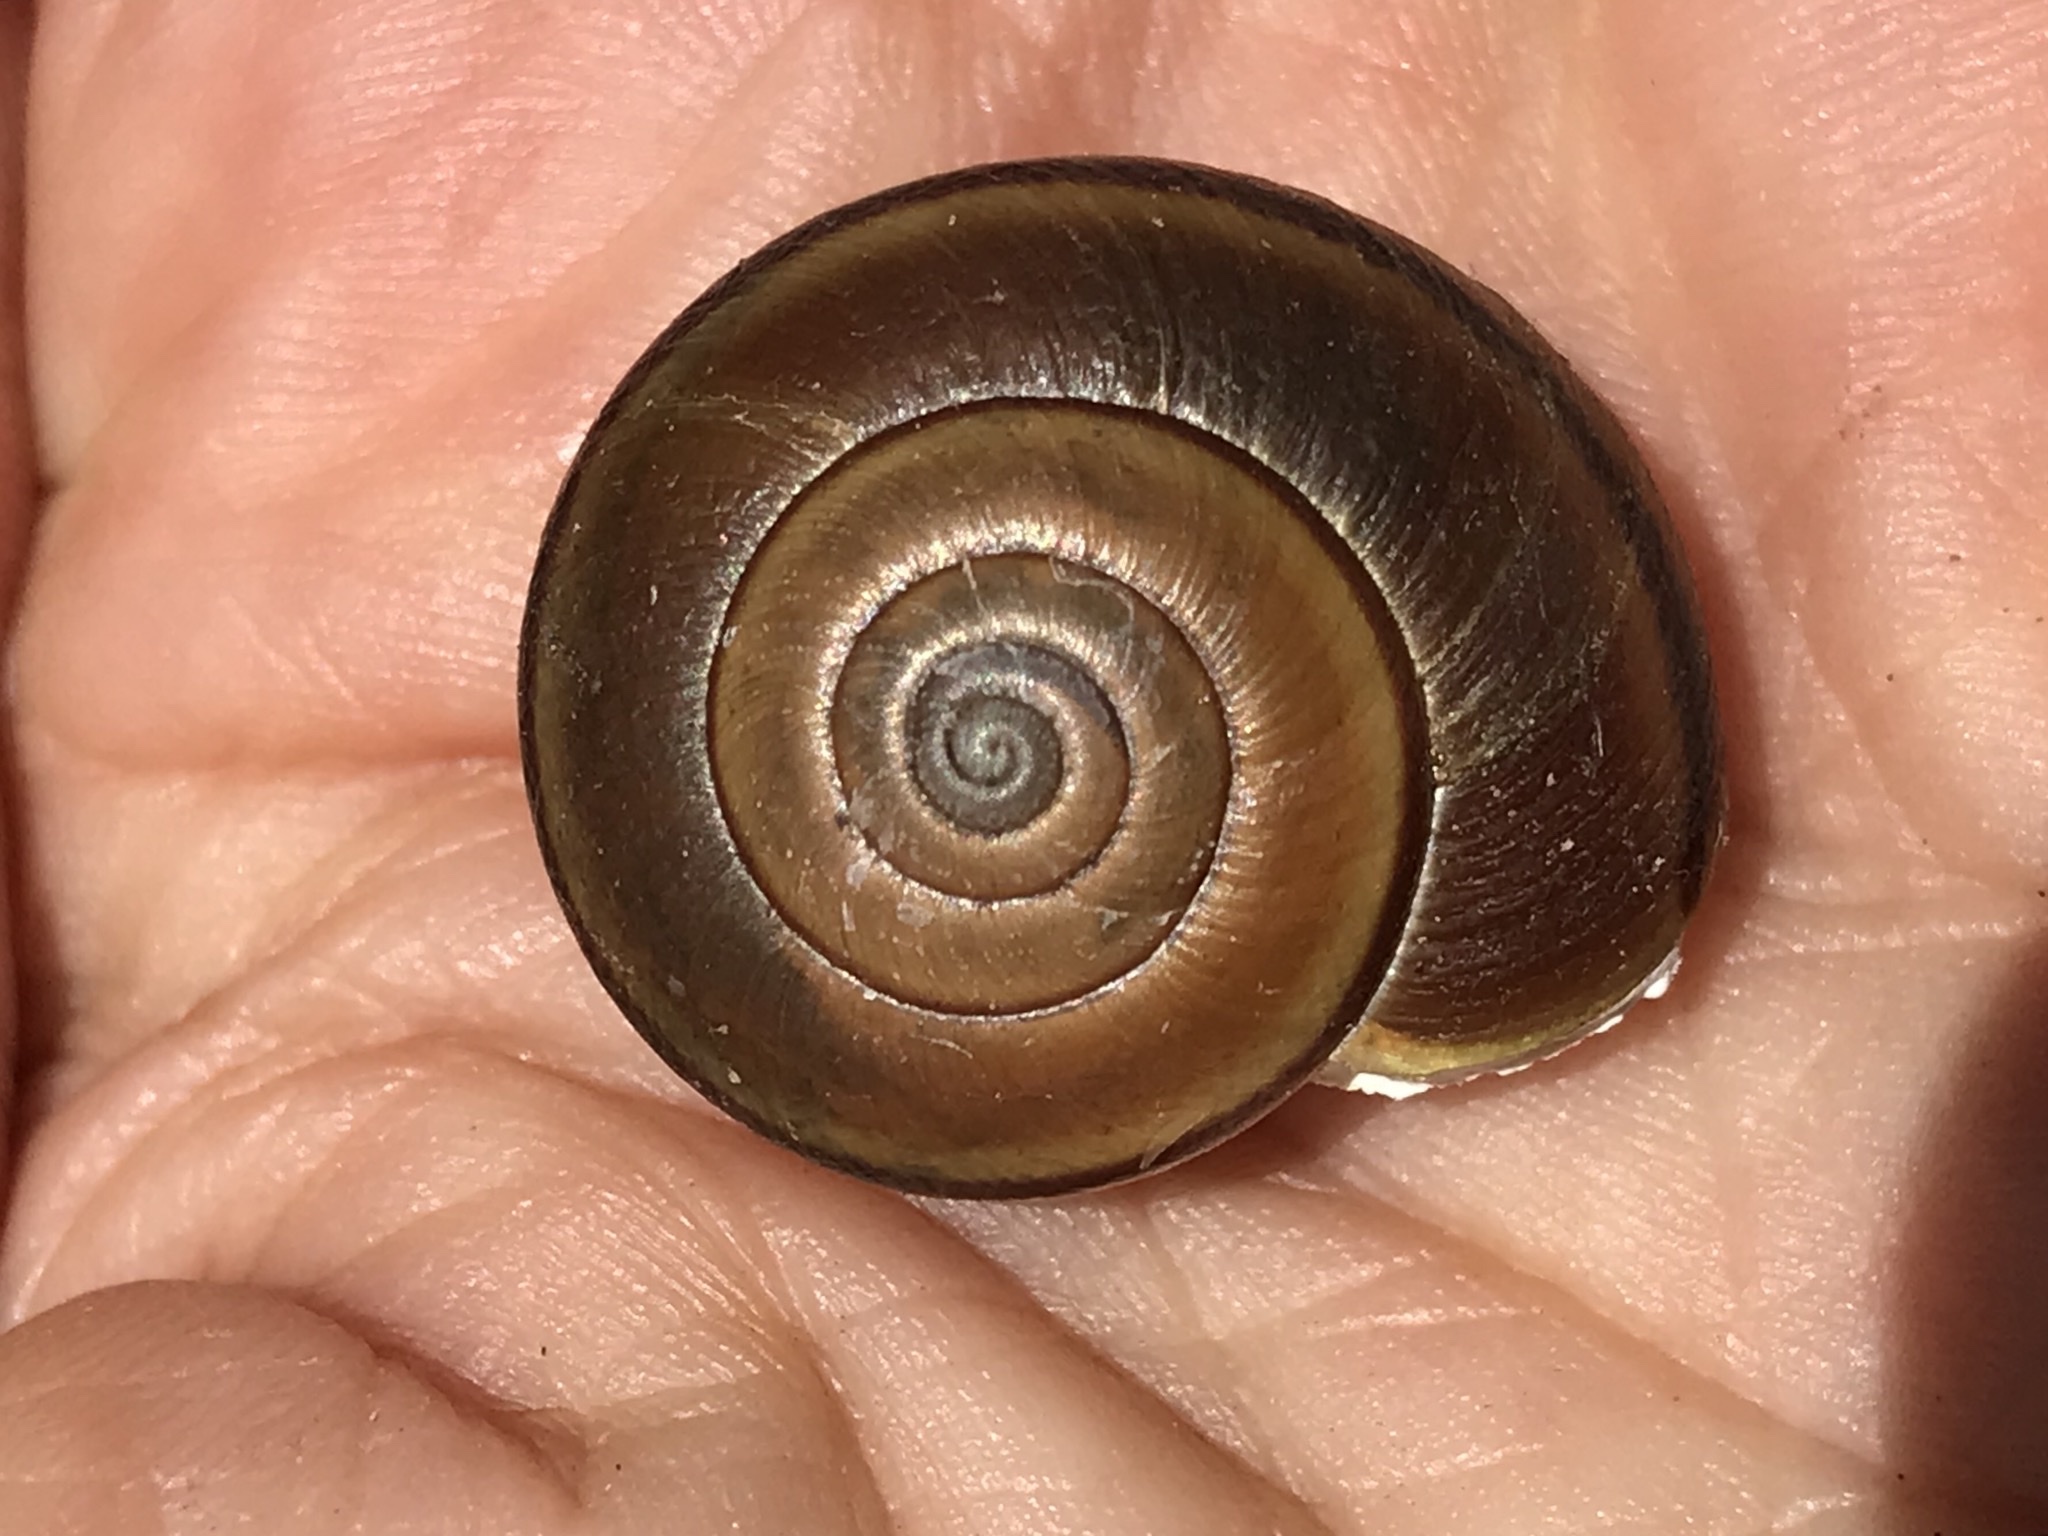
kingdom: Animalia
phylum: Mollusca
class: Gastropoda
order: Stylommatophora
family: Xanthonychidae
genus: Helminthoglypta
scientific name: Helminthoglypta tudiculata
